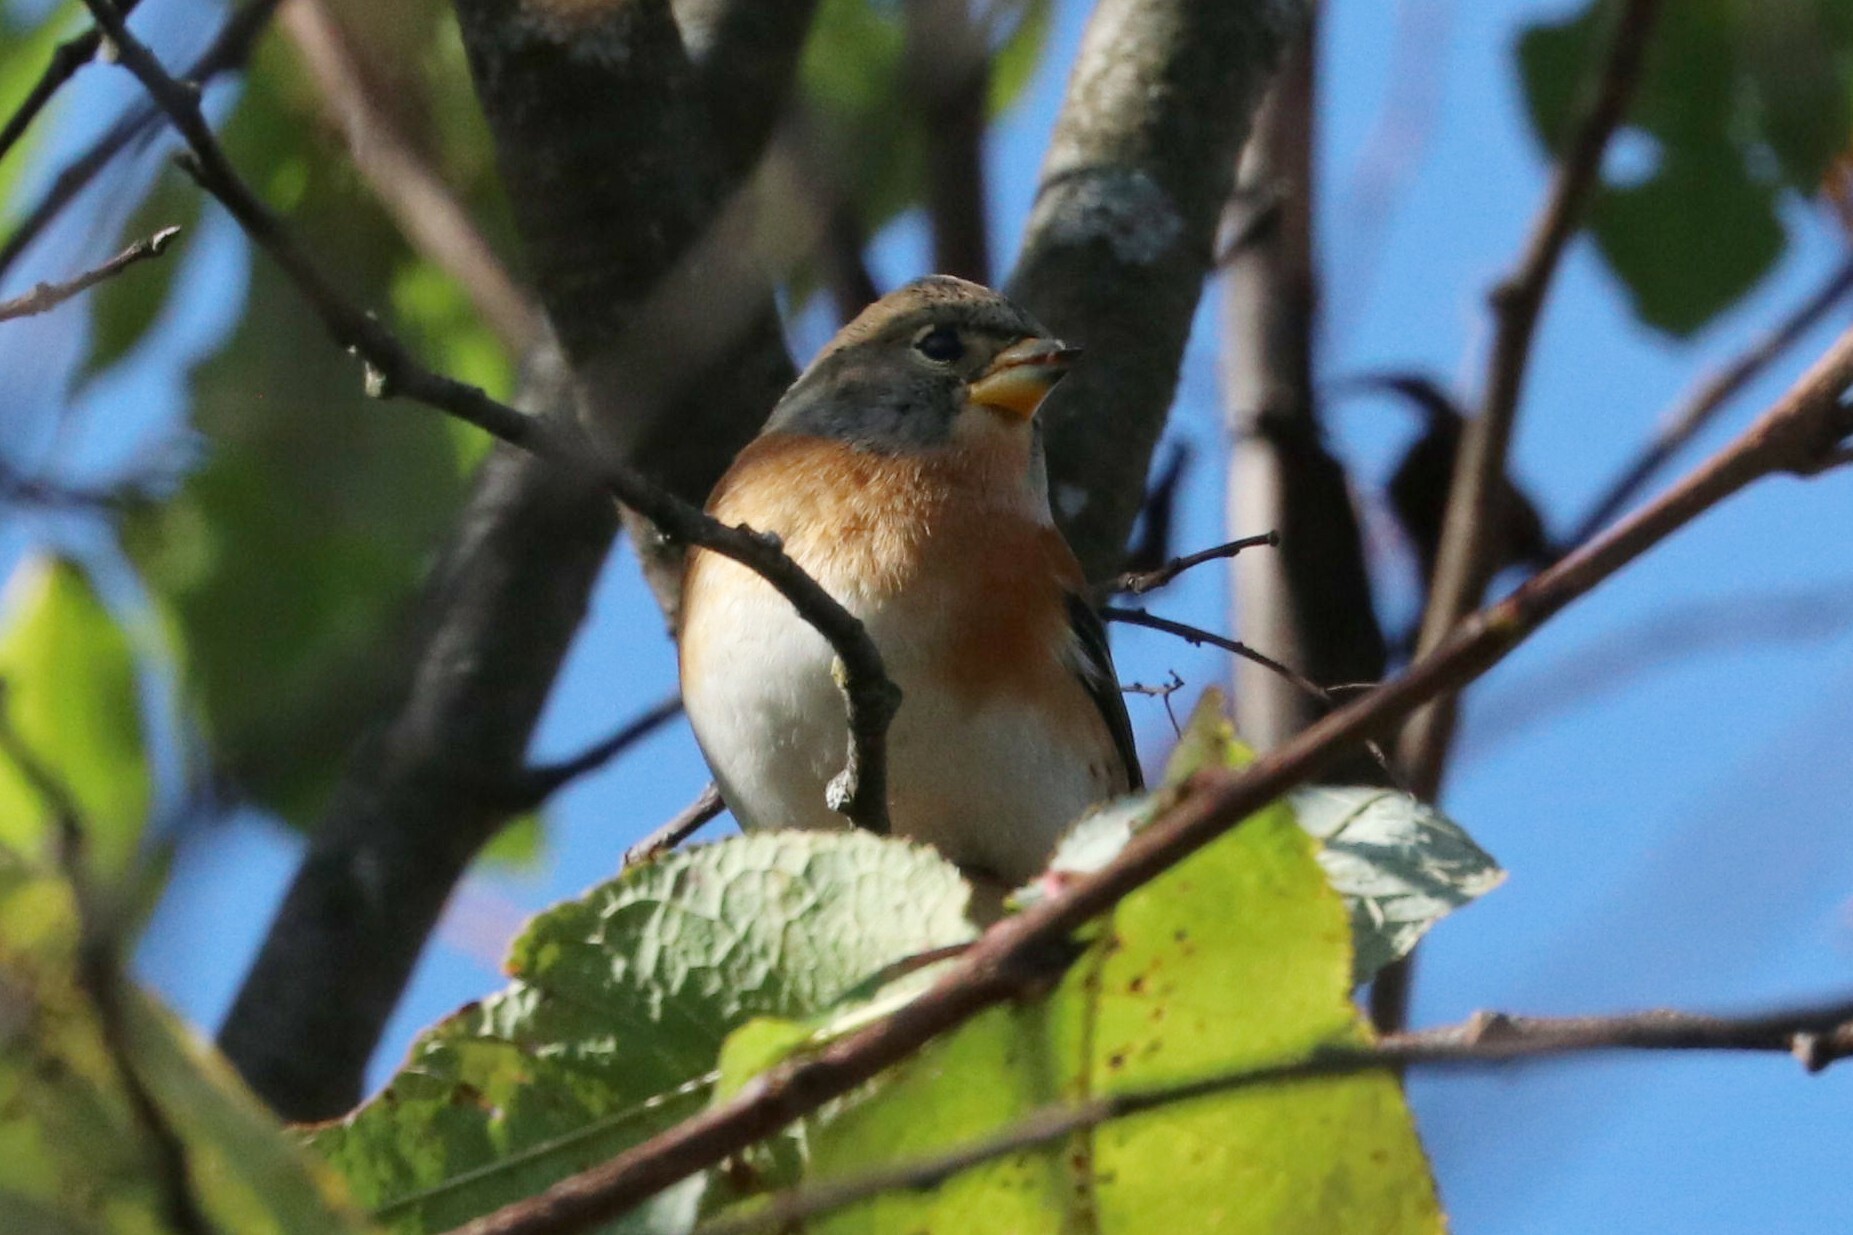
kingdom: Animalia
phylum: Chordata
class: Aves
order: Passeriformes
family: Fringillidae
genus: Fringilla
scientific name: Fringilla montifringilla
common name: Brambling
